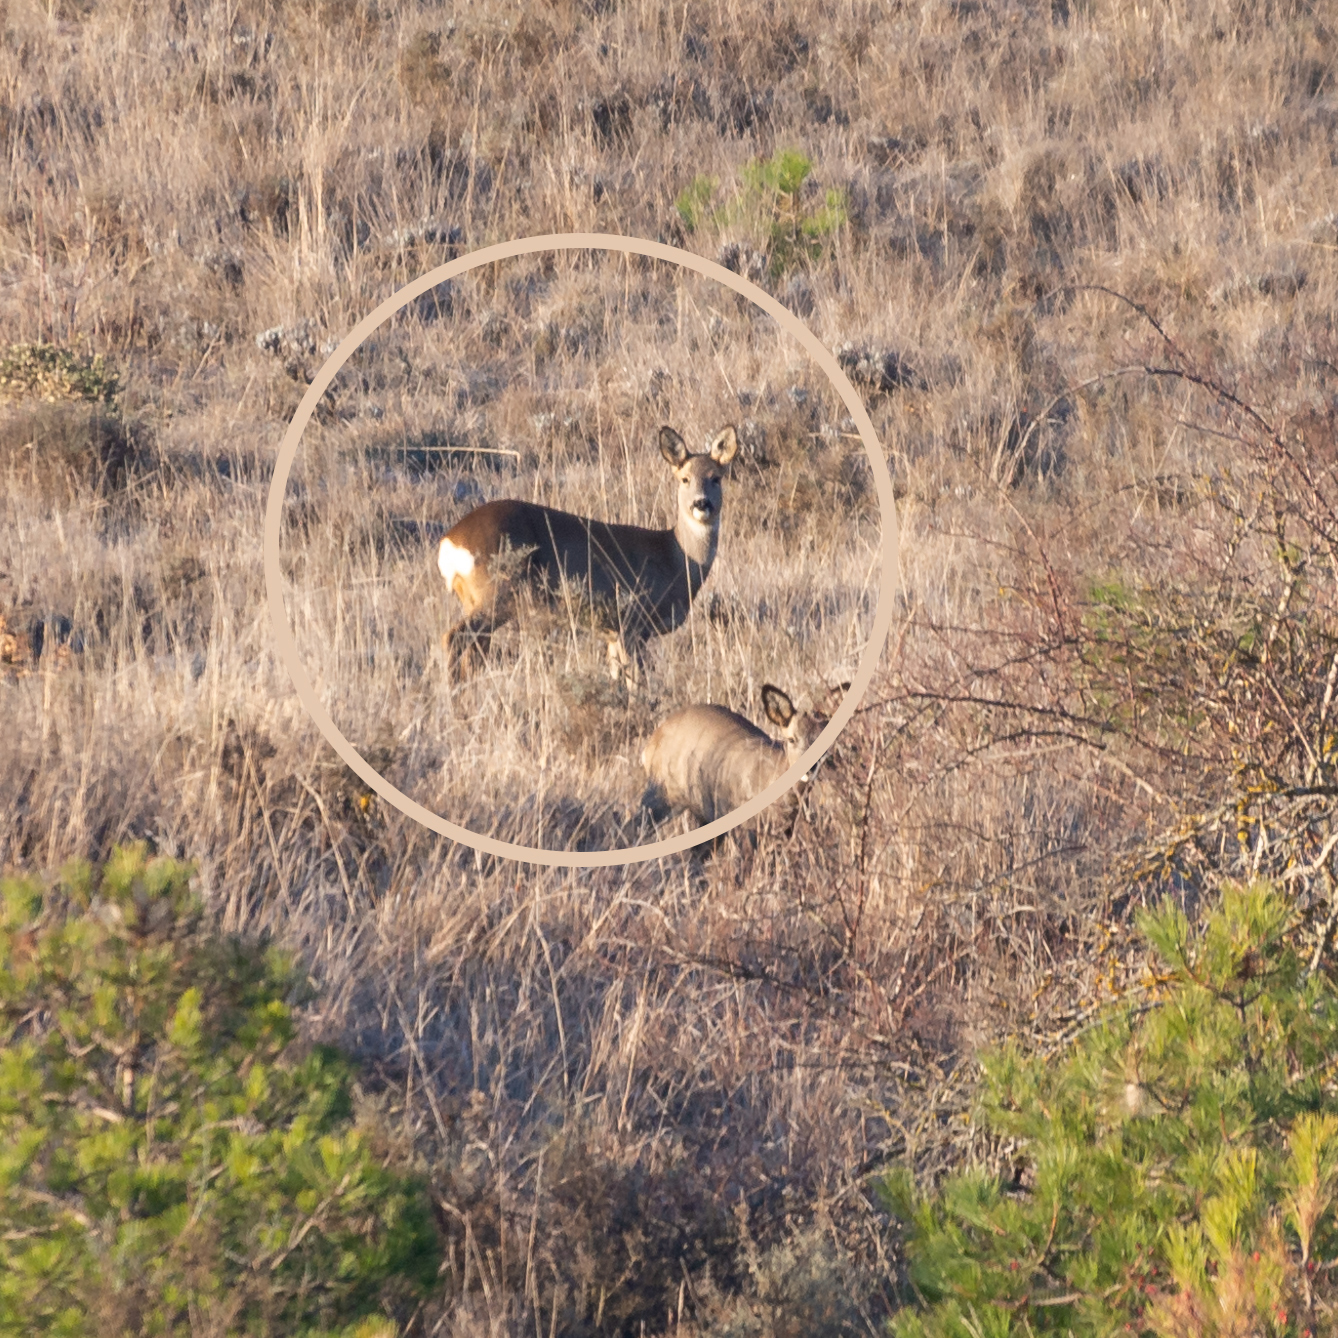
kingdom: Animalia
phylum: Chordata
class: Mammalia
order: Artiodactyla
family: Cervidae
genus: Capreolus
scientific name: Capreolus capreolus
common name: Western roe deer
